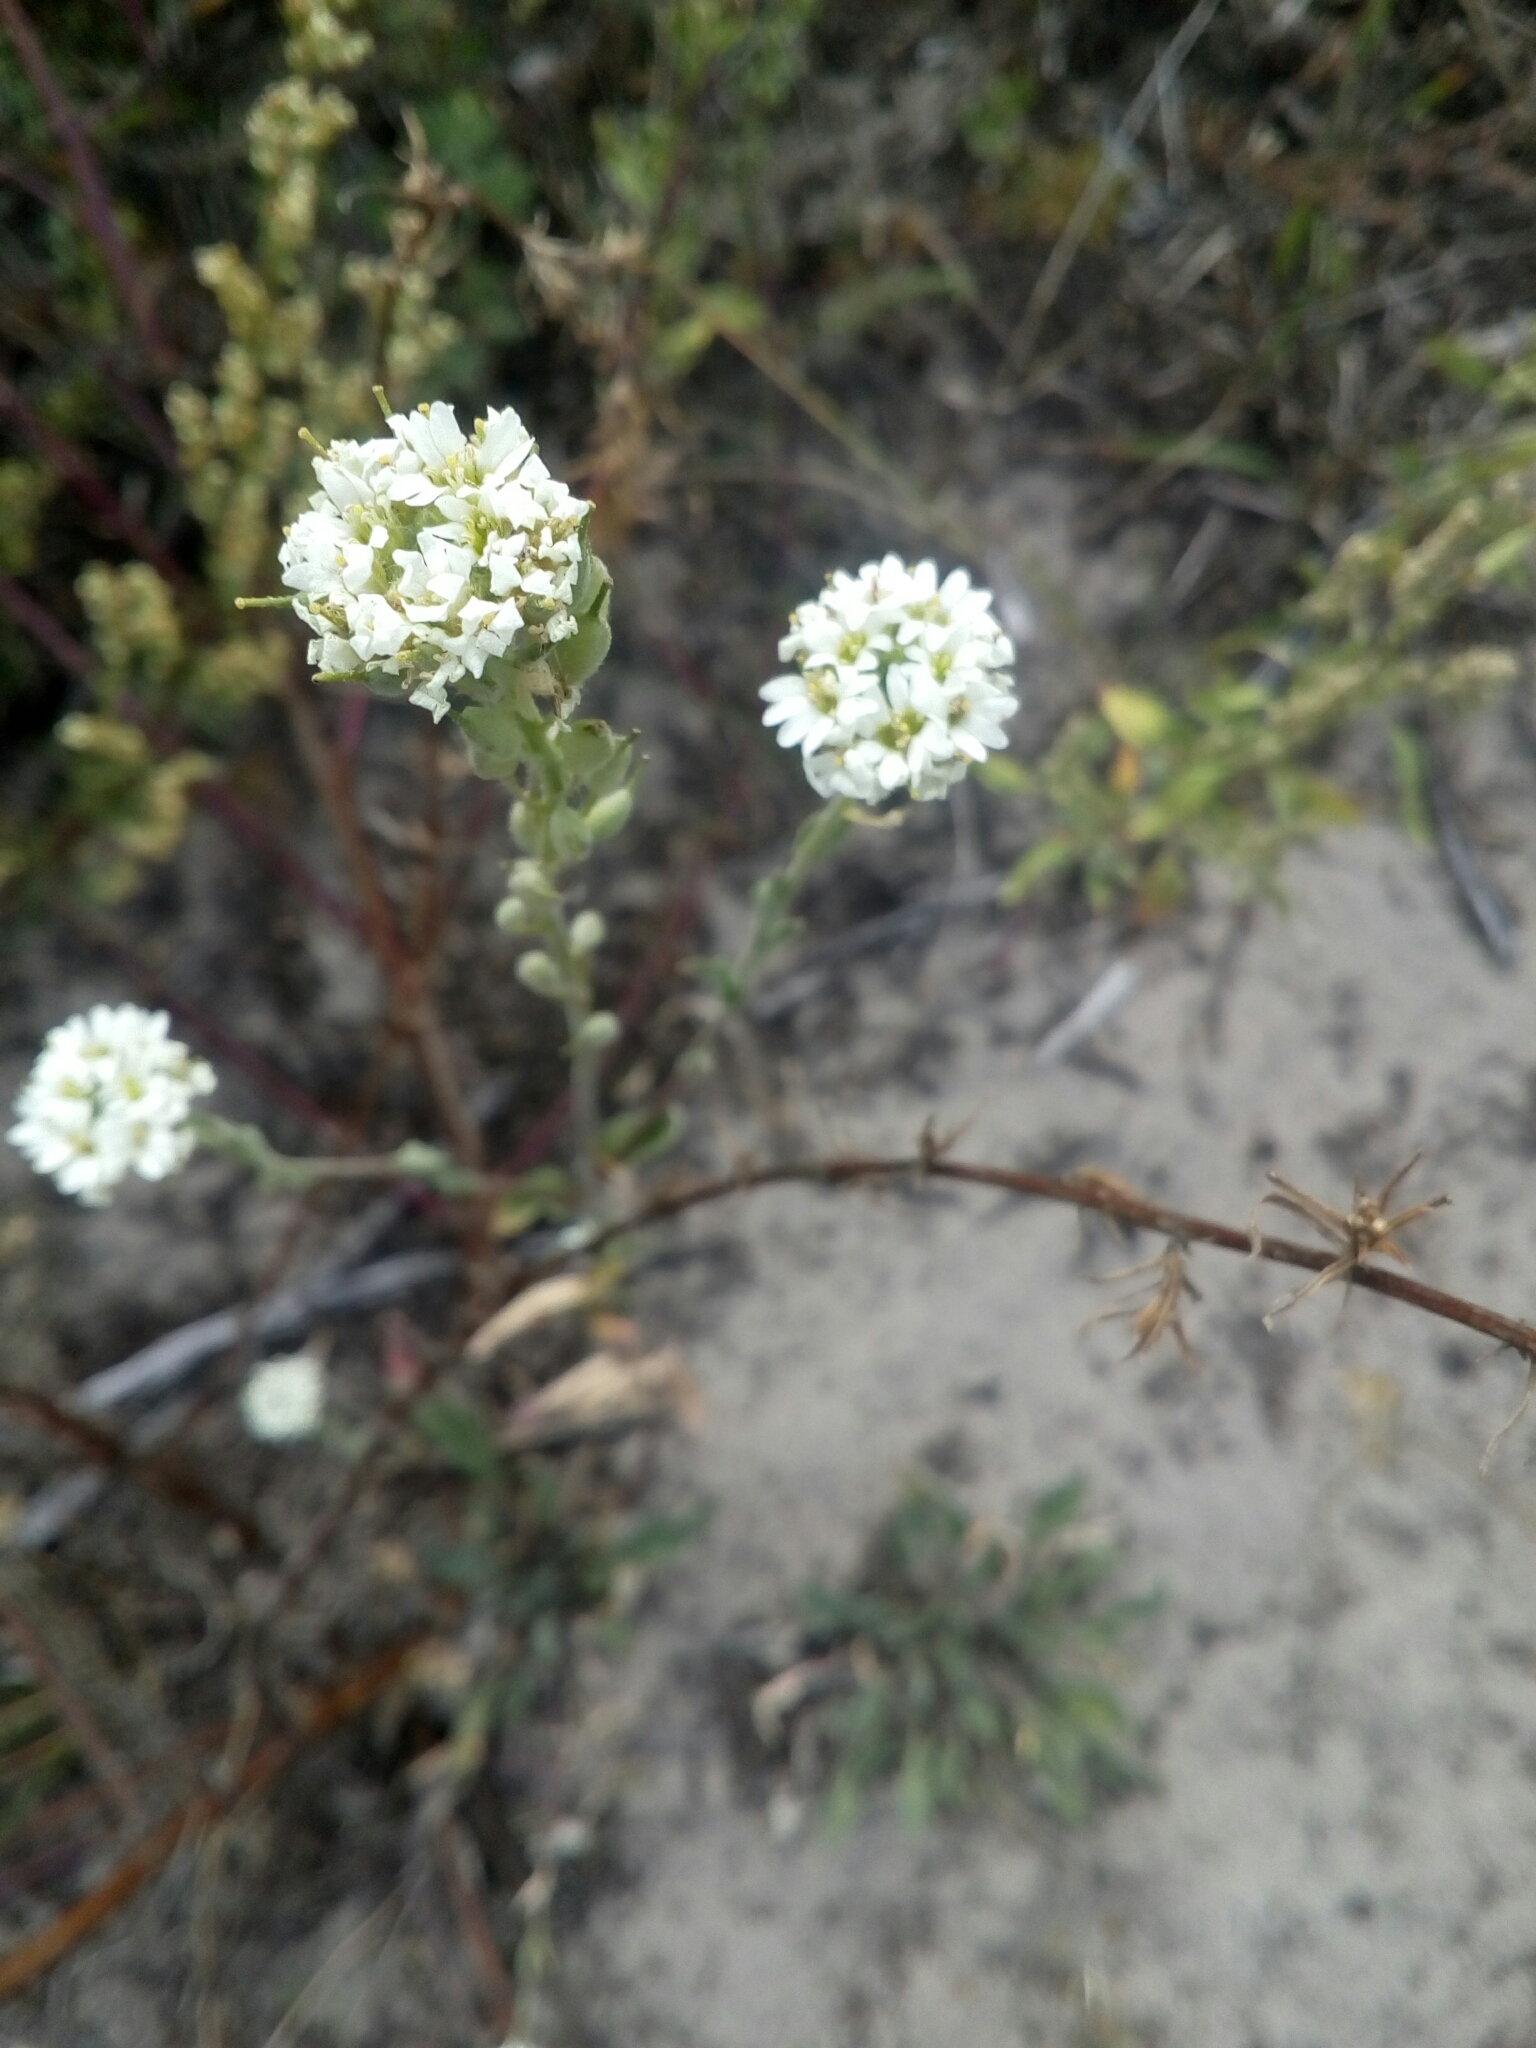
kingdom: Plantae
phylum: Tracheophyta
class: Magnoliopsida
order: Brassicales
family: Brassicaceae
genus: Berteroa
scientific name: Berteroa incana
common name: Hoary alison
